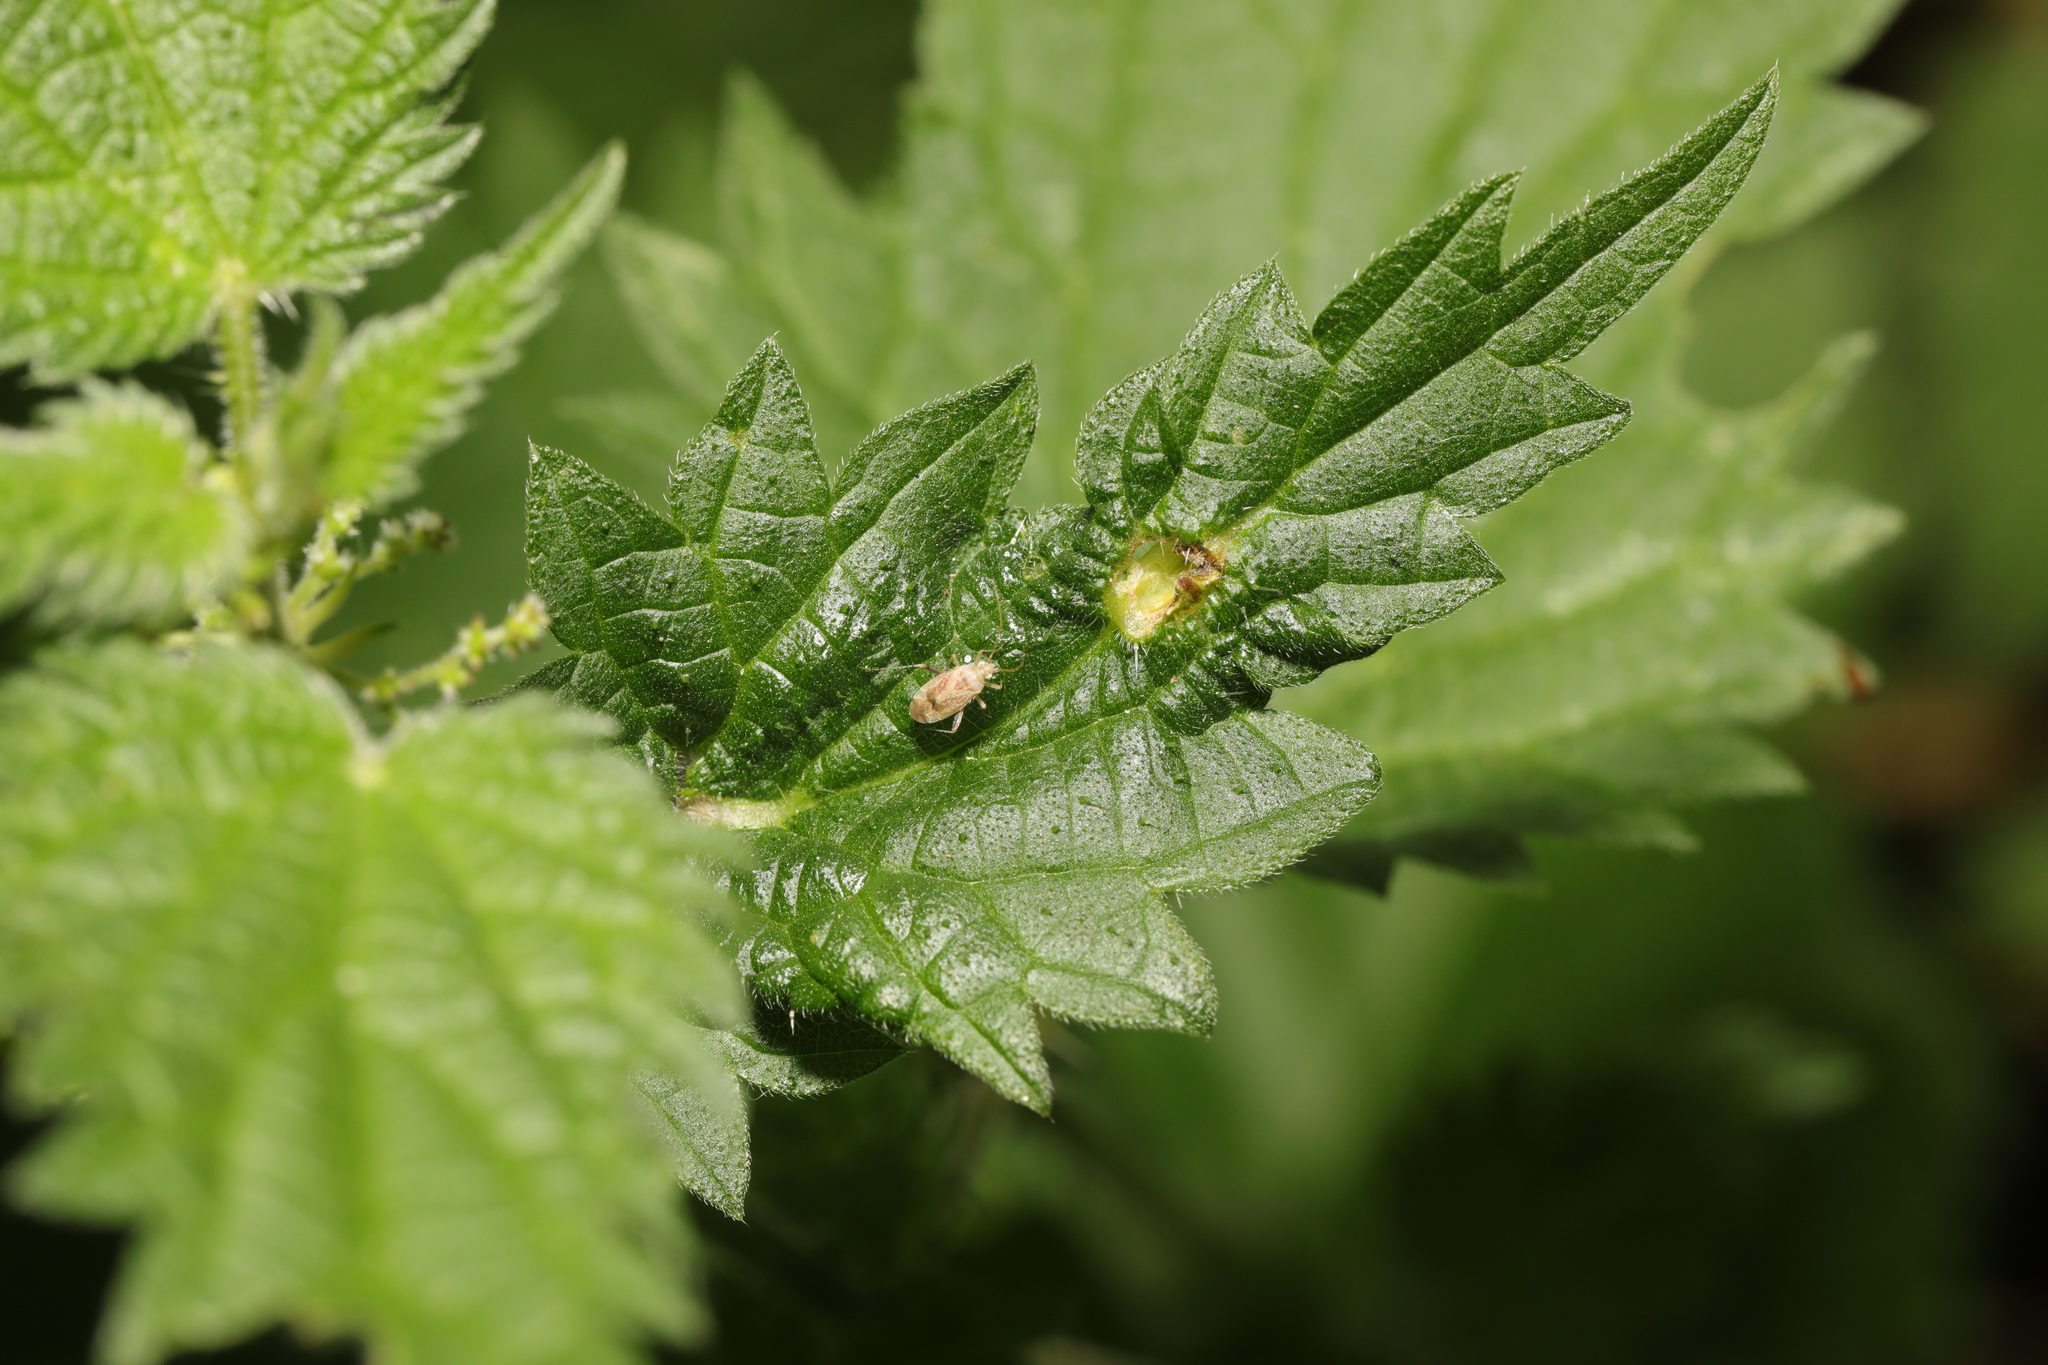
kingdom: Animalia
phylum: Arthropoda
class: Insecta
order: Diptera
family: Cecidomyiidae
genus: Dasineura
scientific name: Dasineura urticae
